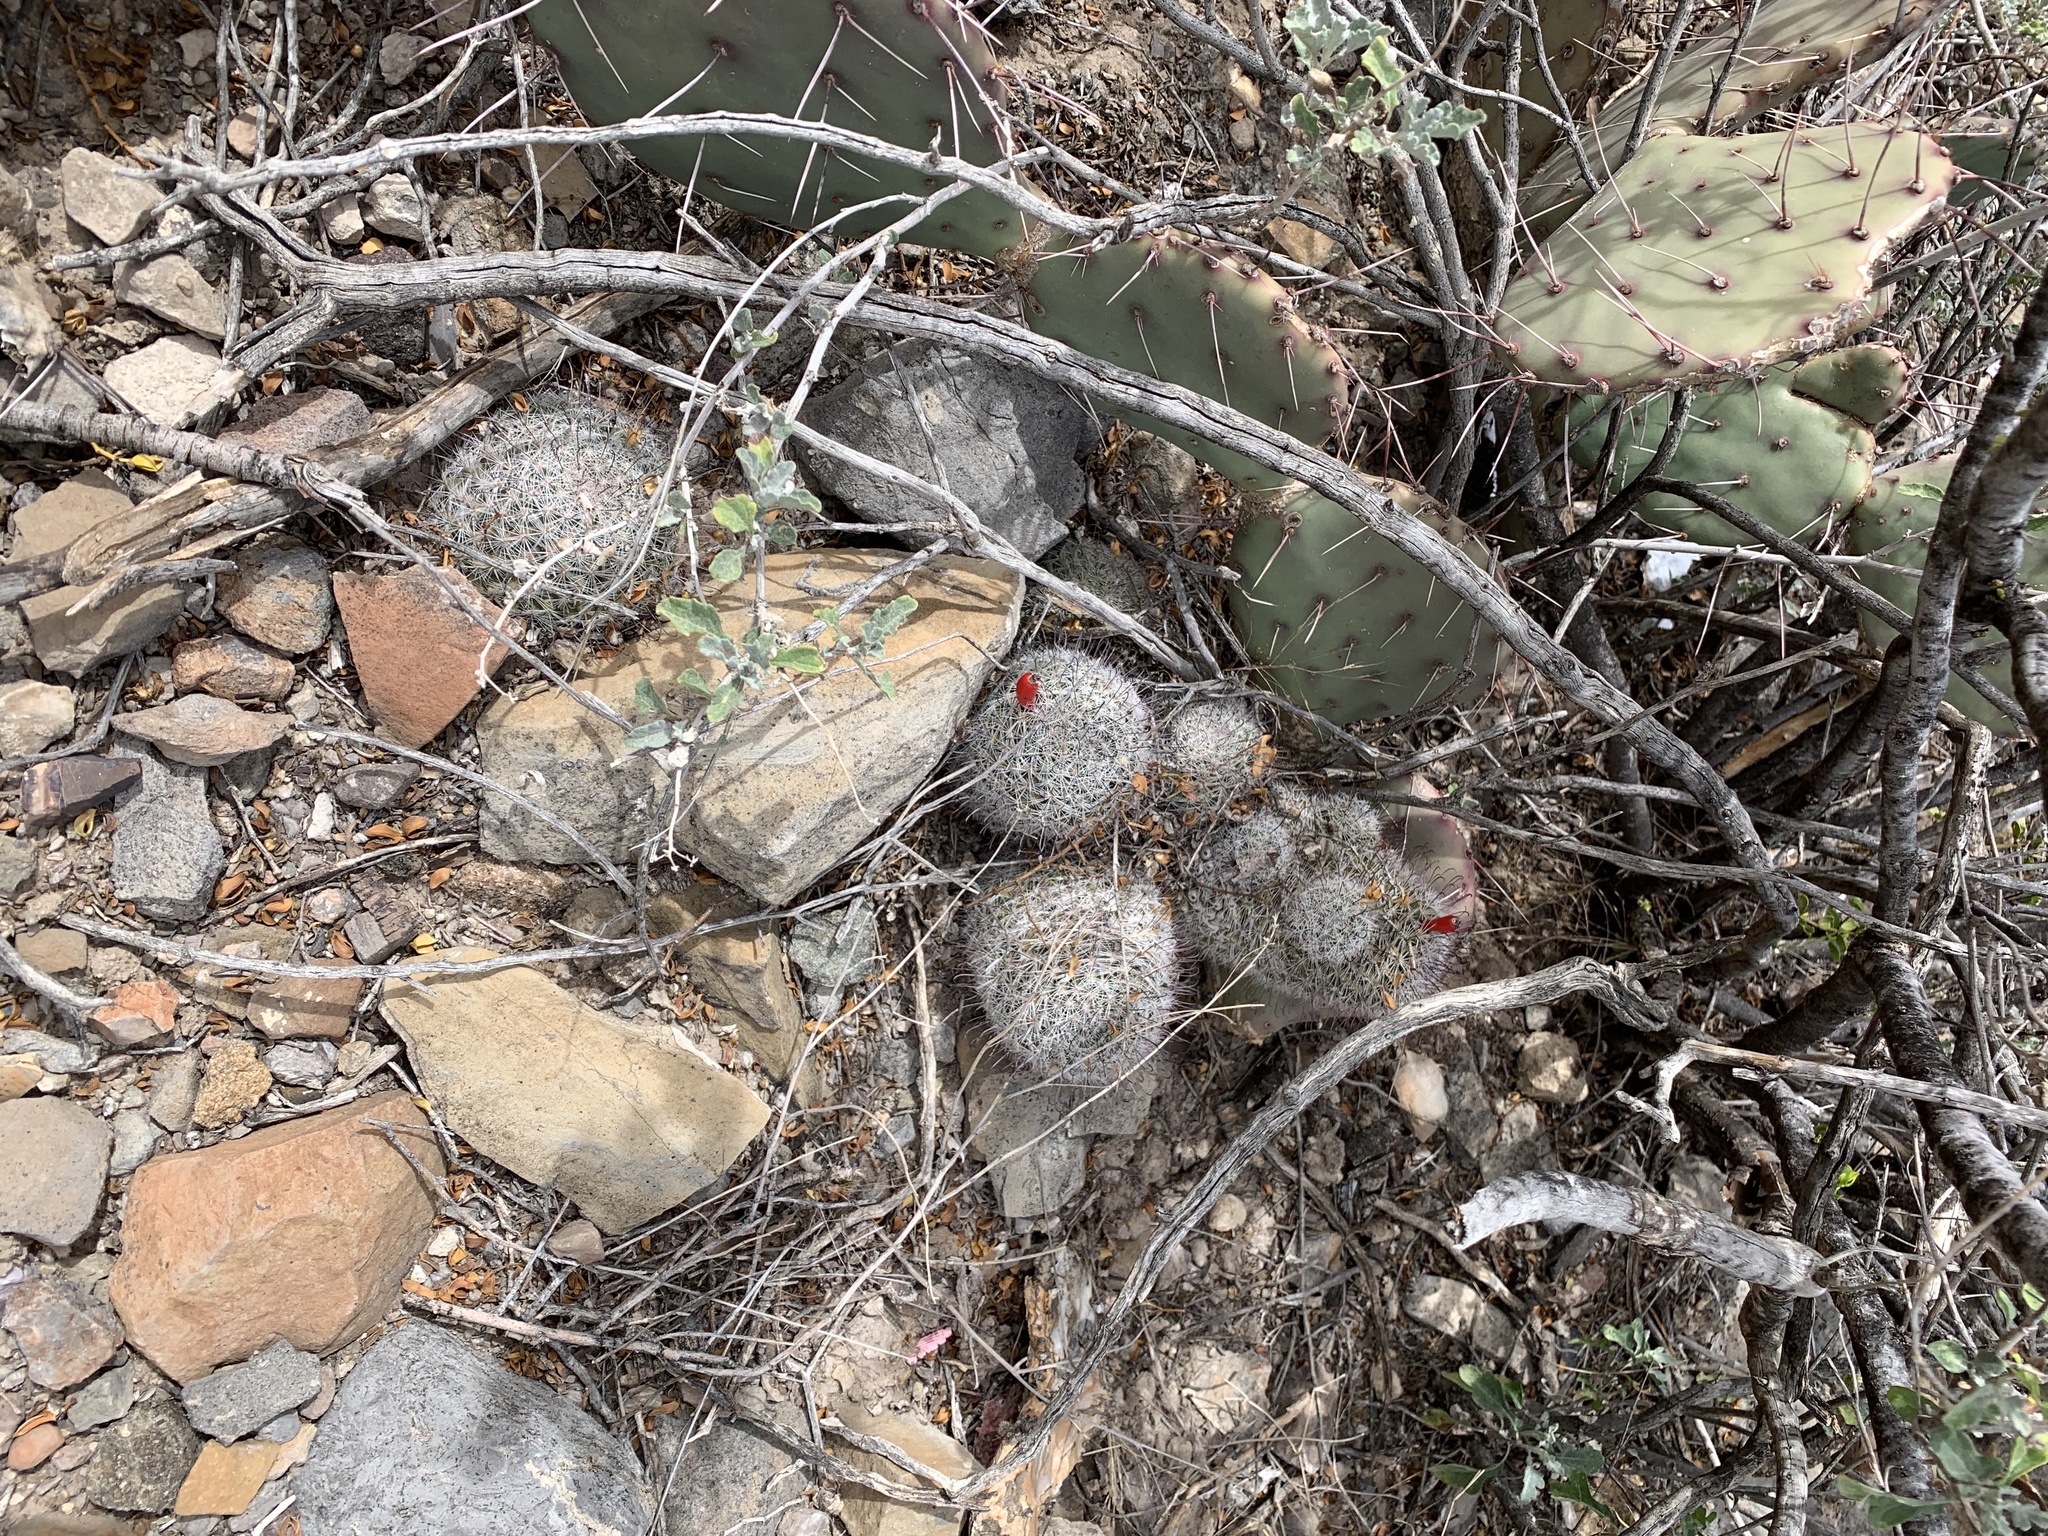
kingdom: Plantae
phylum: Tracheophyta
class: Magnoliopsida
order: Caryophyllales
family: Cactaceae
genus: Cochemiea
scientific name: Cochemiea grahamii
